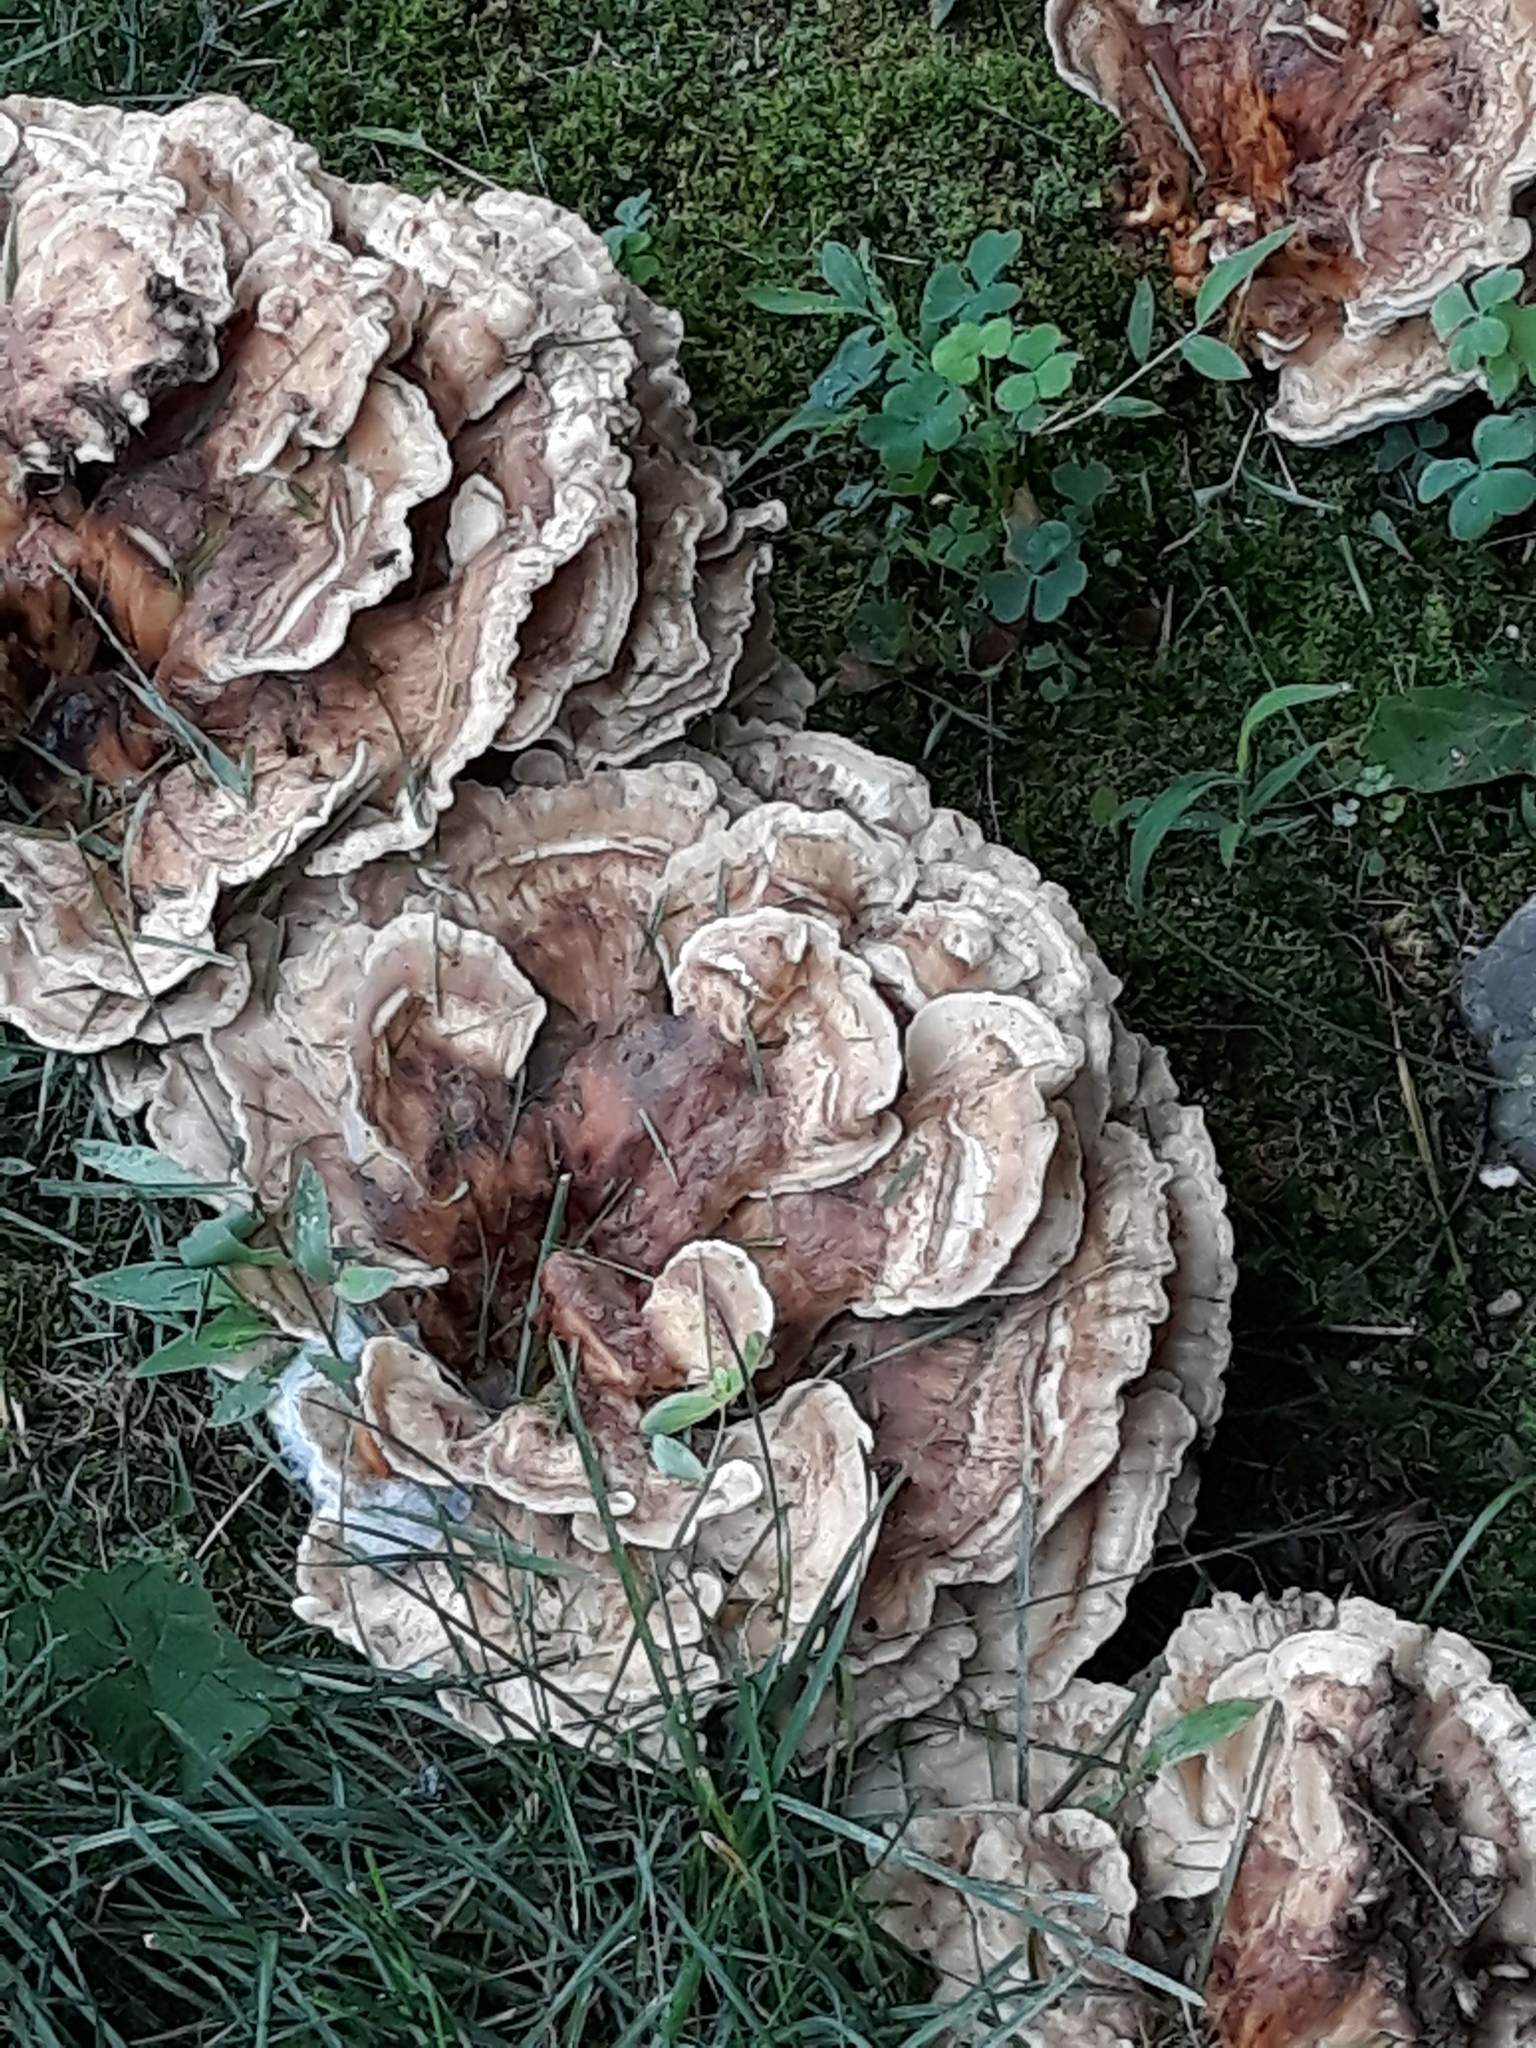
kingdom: Fungi
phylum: Basidiomycota
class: Agaricomycetes
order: Polyporales
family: Meripilaceae
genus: Meripilus
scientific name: Meripilus sumstinei
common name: Black-staining polypore
